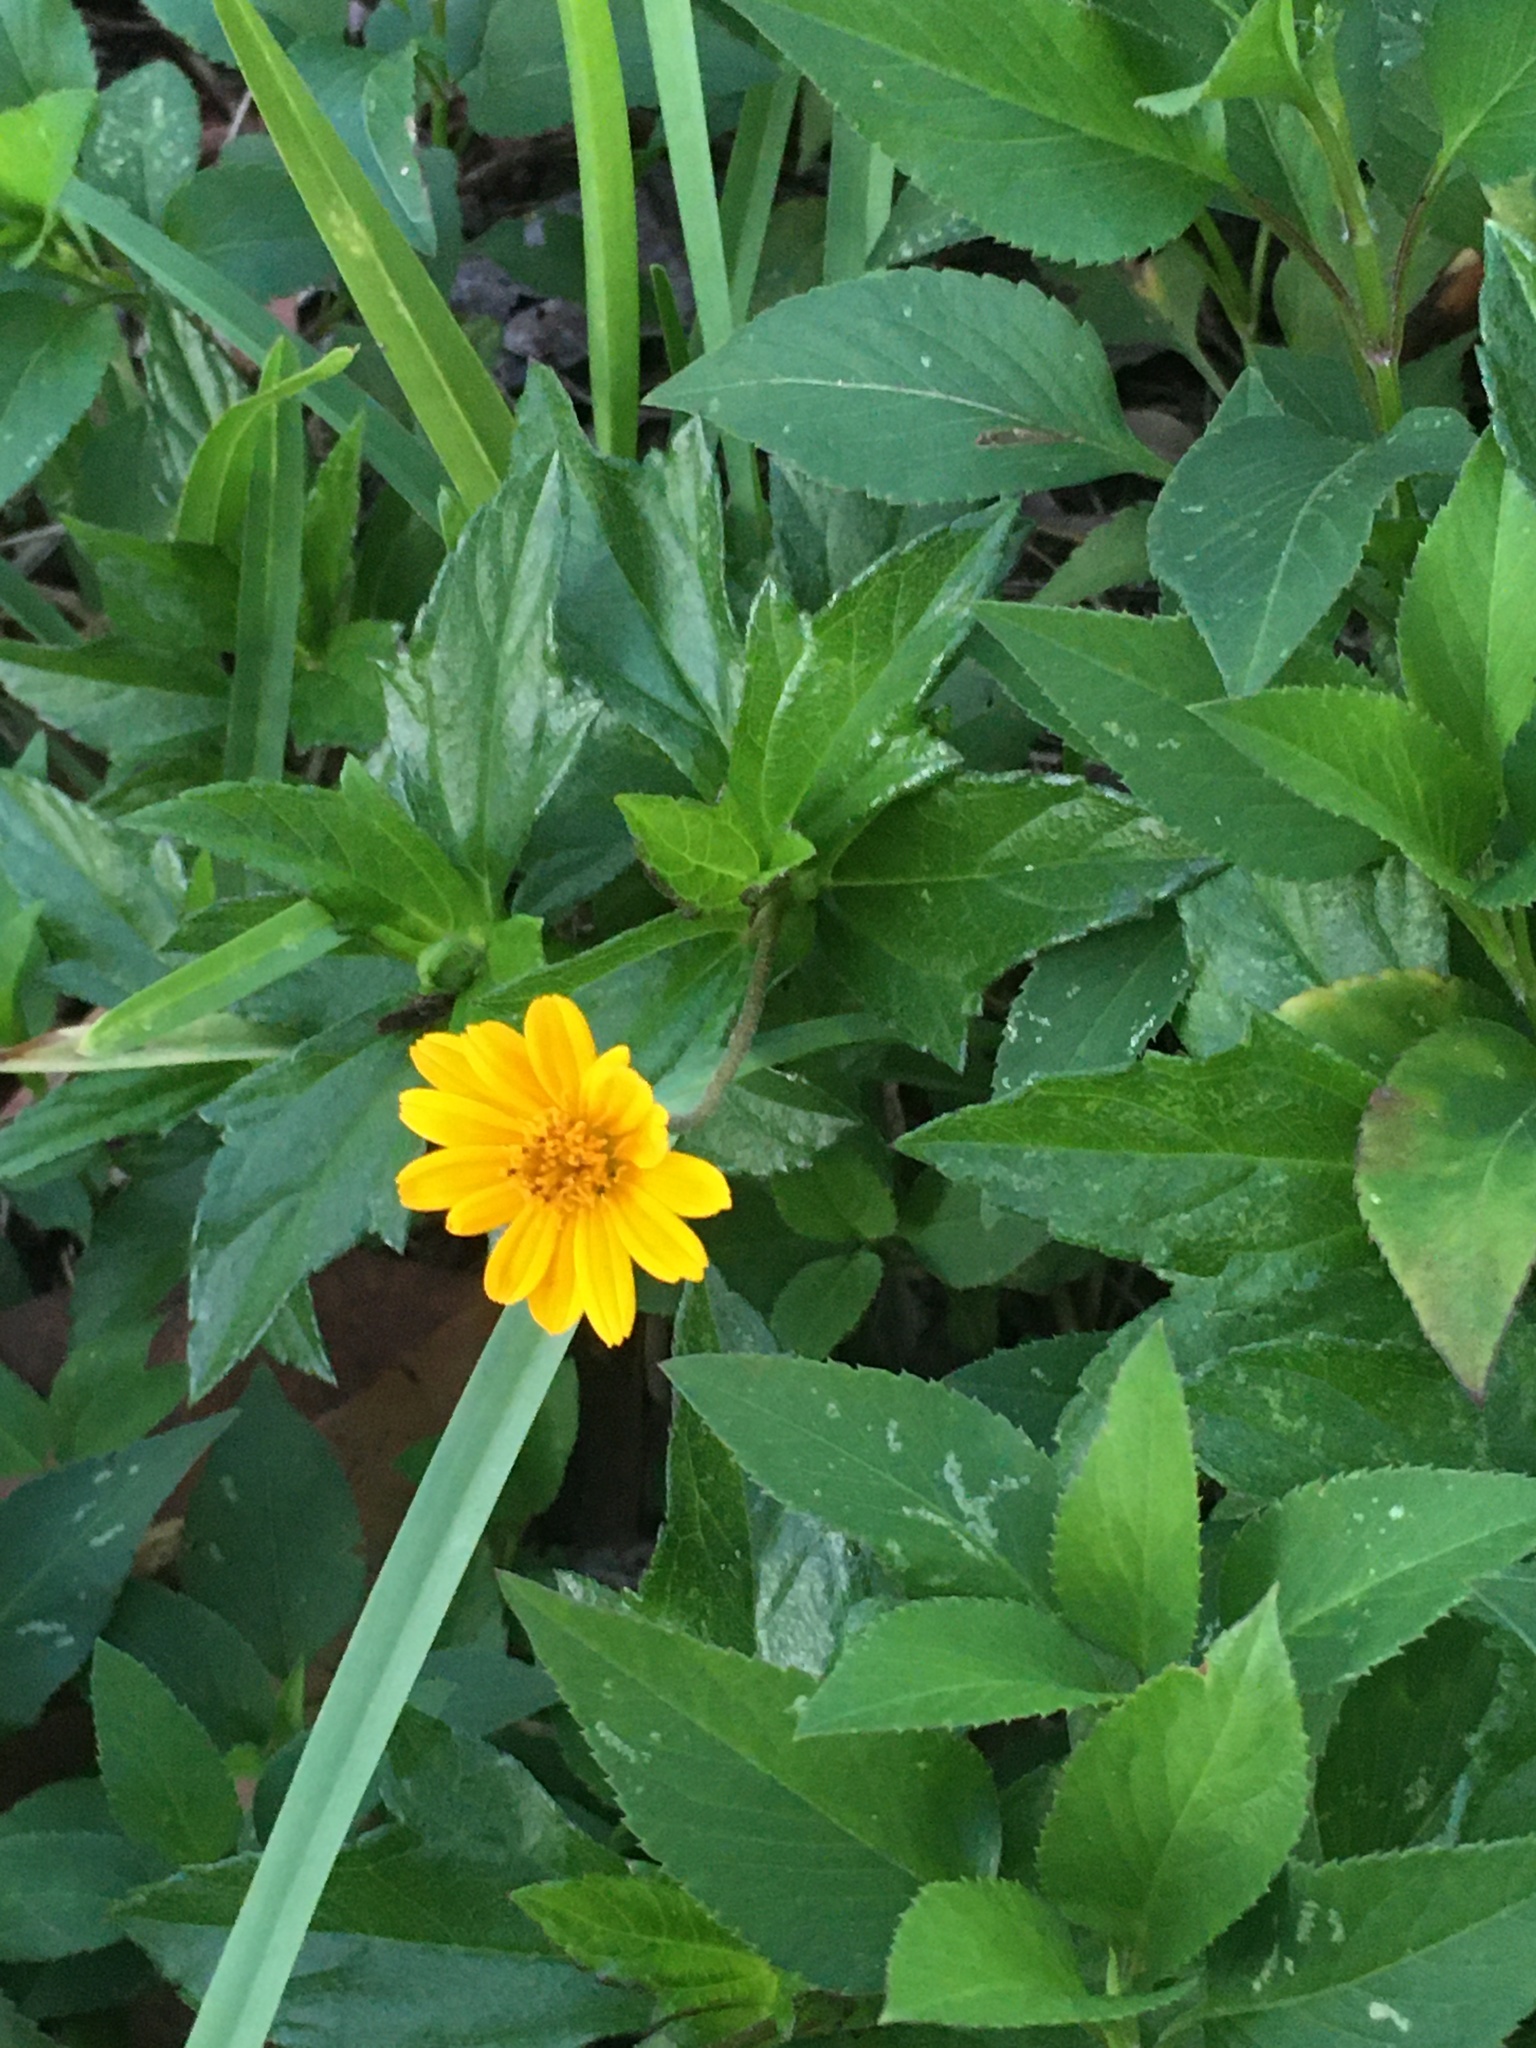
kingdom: Plantae
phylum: Tracheophyta
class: Magnoliopsida
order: Asterales
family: Asteraceae
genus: Sphagneticola
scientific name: Sphagneticola trilobata
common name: Bay biscayne creeping-oxeye
